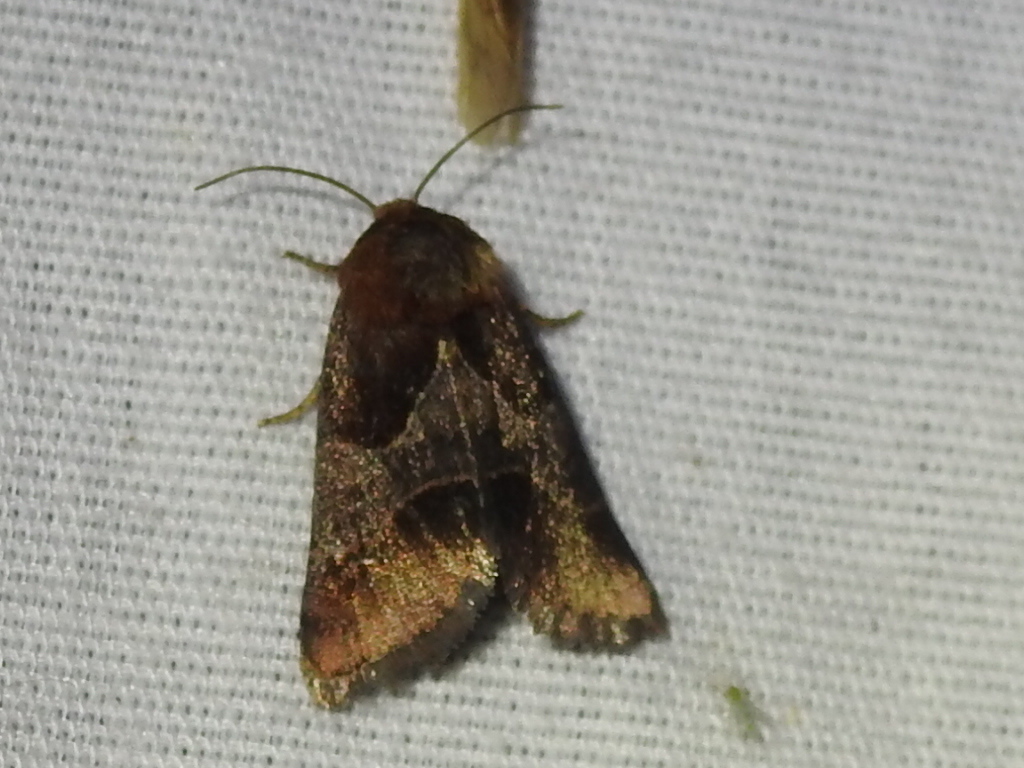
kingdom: Animalia
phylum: Arthropoda
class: Insecta
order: Lepidoptera
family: Noctuidae
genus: Schinia
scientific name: Schinia arcigera
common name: Arcigera flower moth
